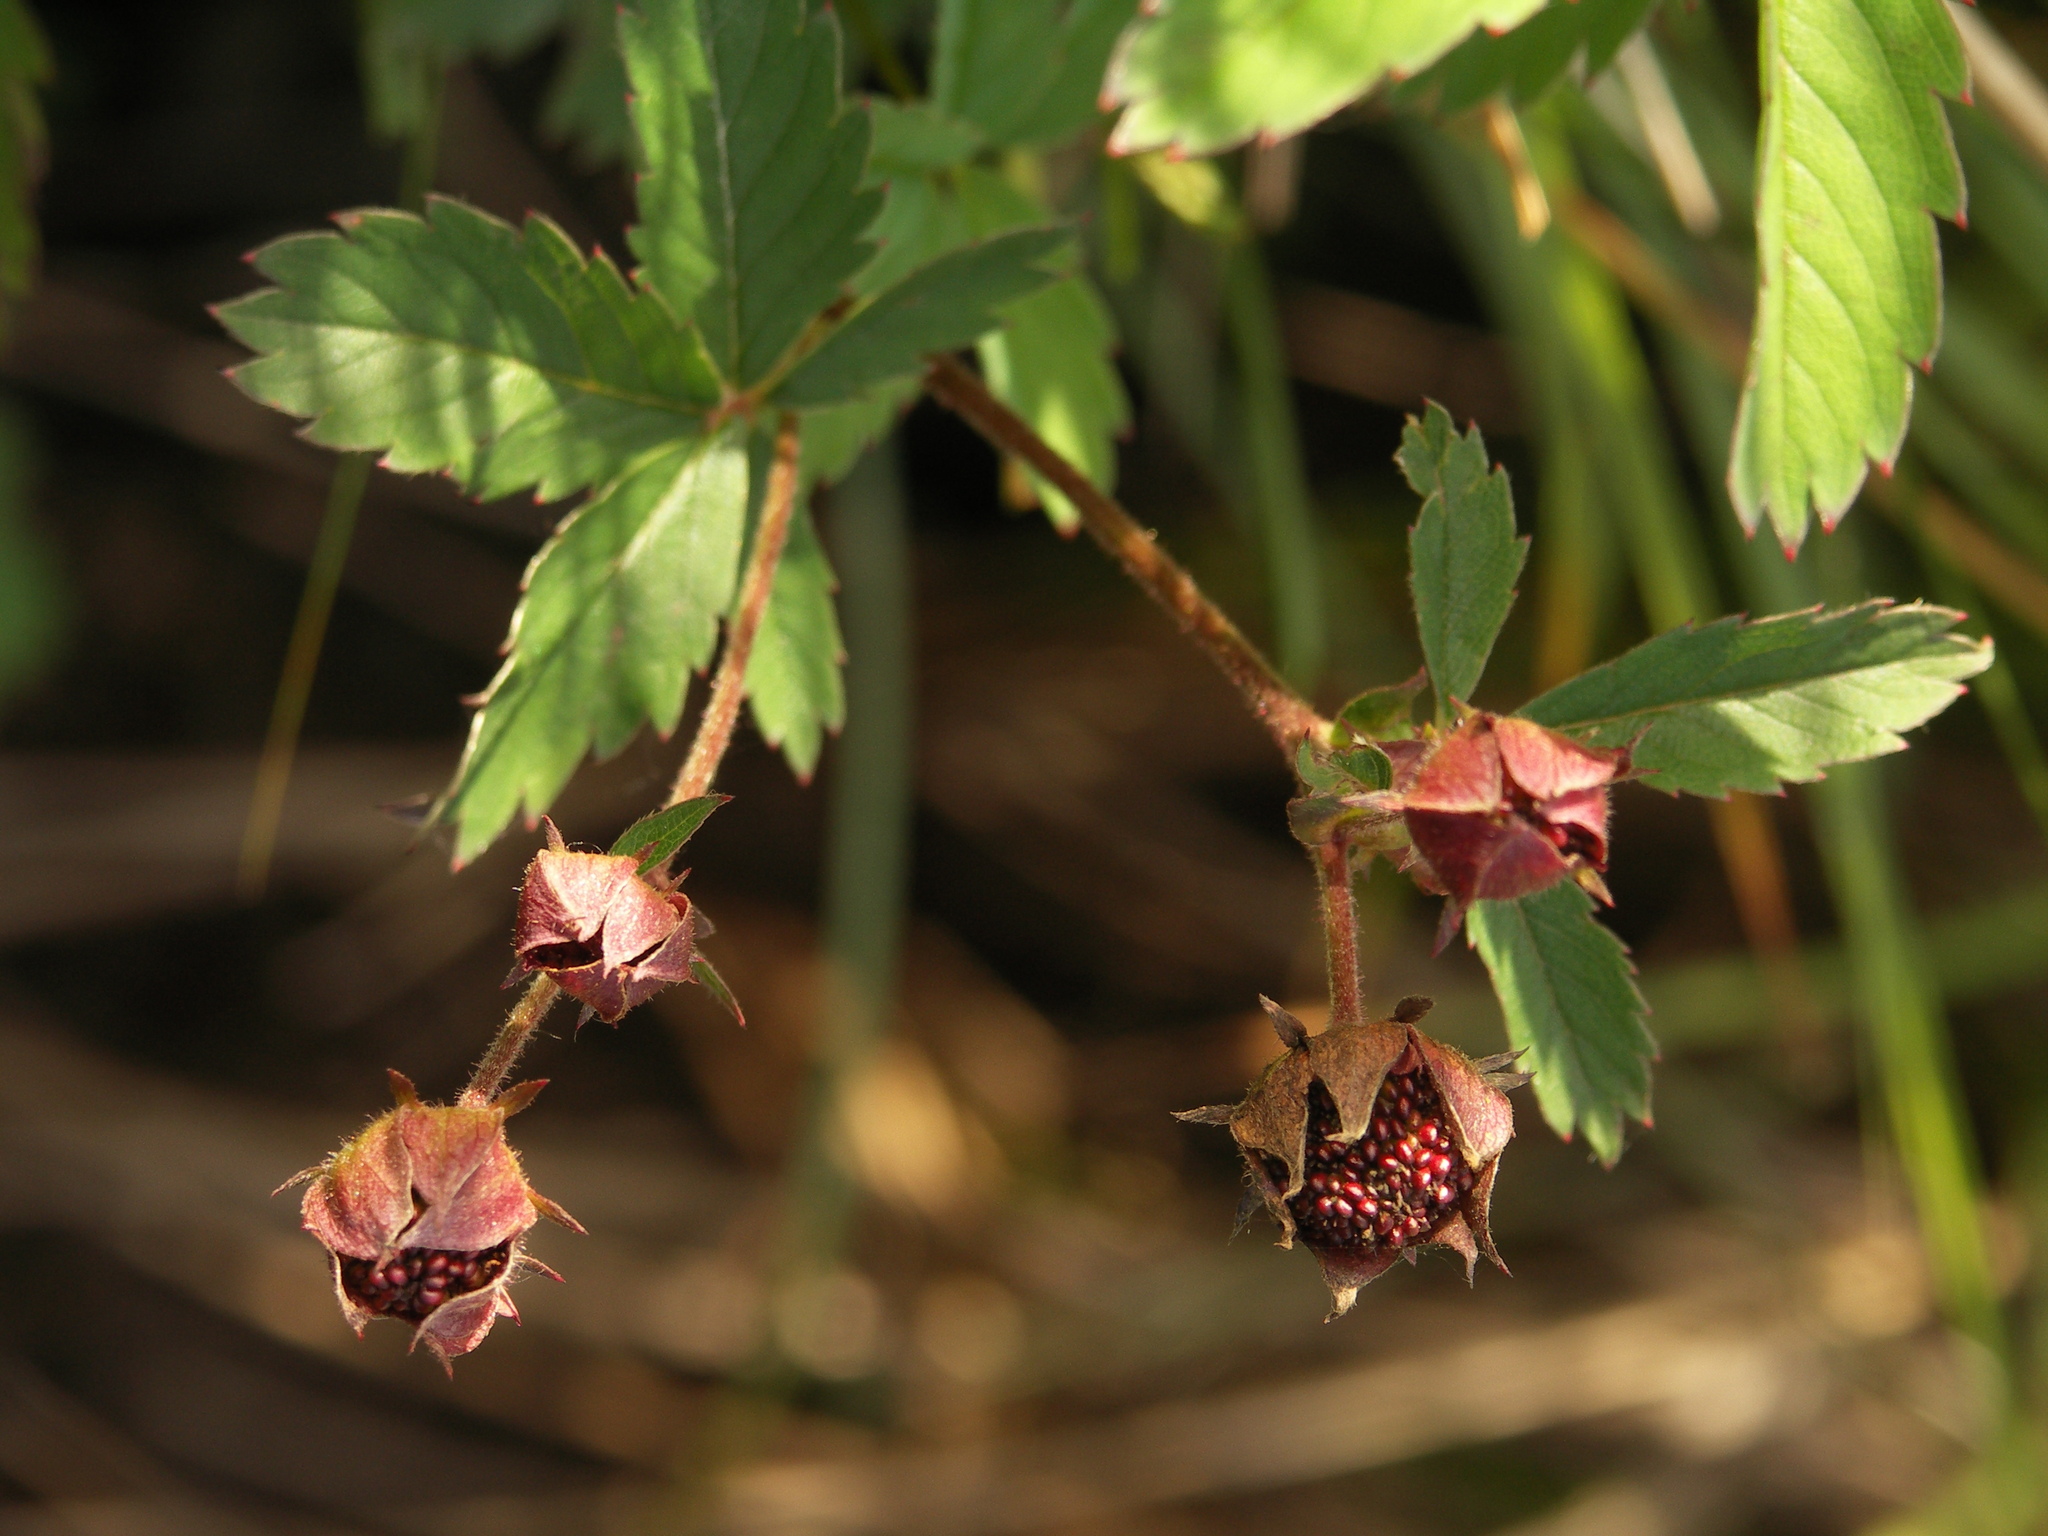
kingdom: Plantae
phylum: Tracheophyta
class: Magnoliopsida
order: Rosales
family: Rosaceae
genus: Comarum
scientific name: Comarum palustre
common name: Marsh cinquefoil
